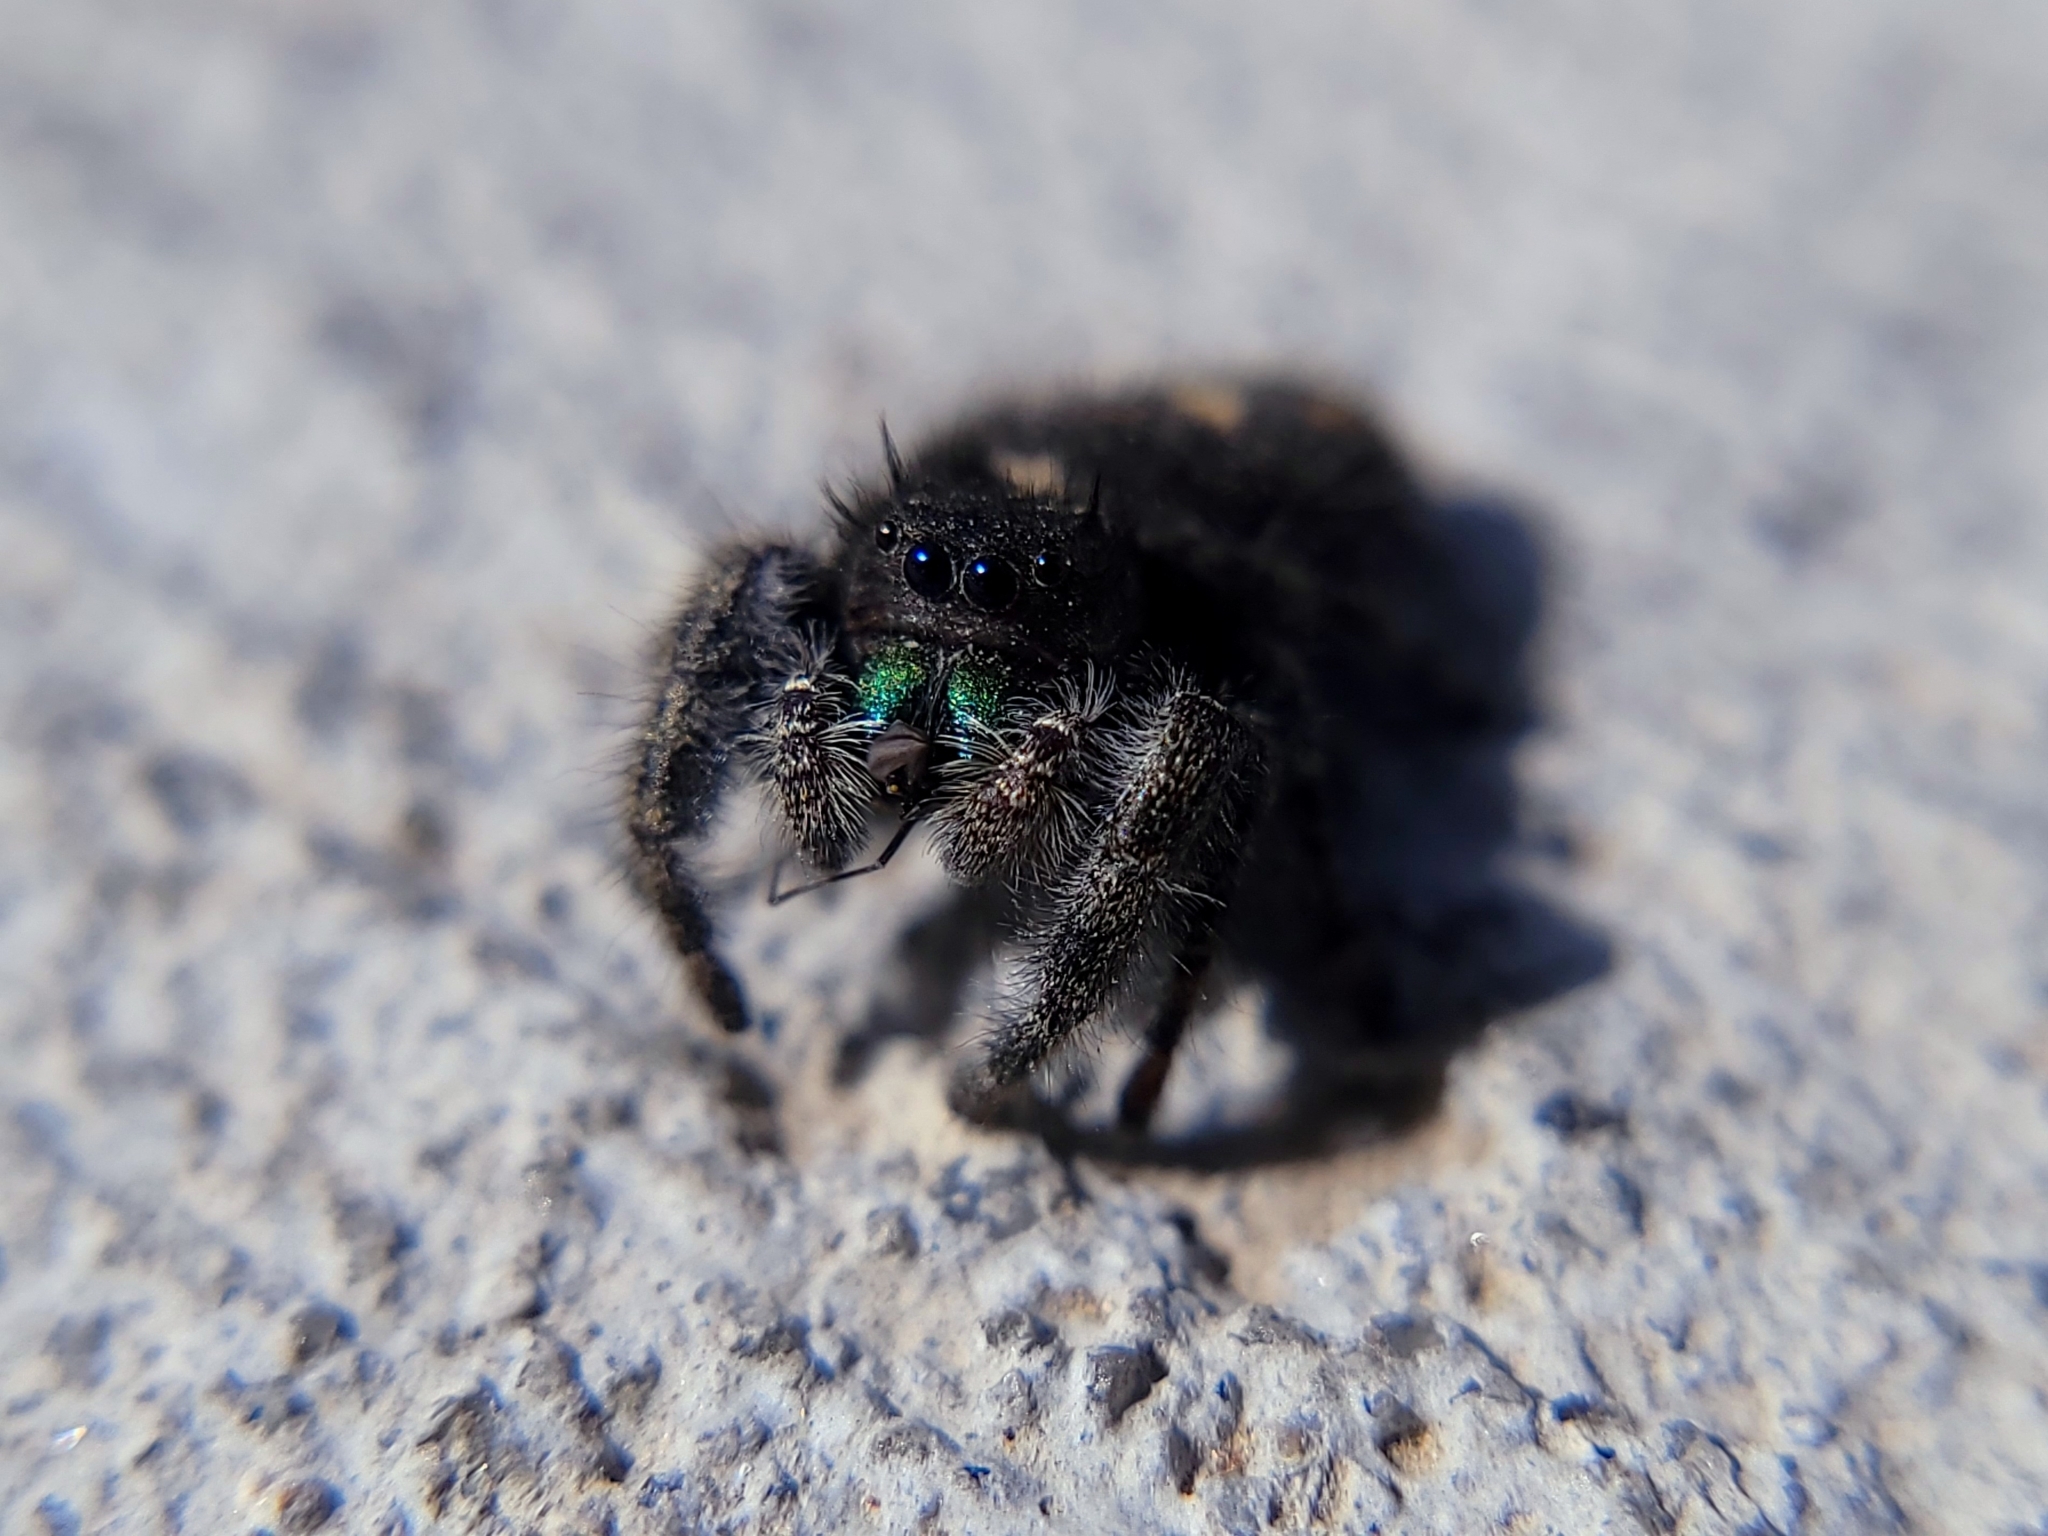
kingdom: Animalia
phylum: Arthropoda
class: Arachnida
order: Araneae
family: Salticidae
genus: Phidippus
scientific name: Phidippus audax
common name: Bold jumper
